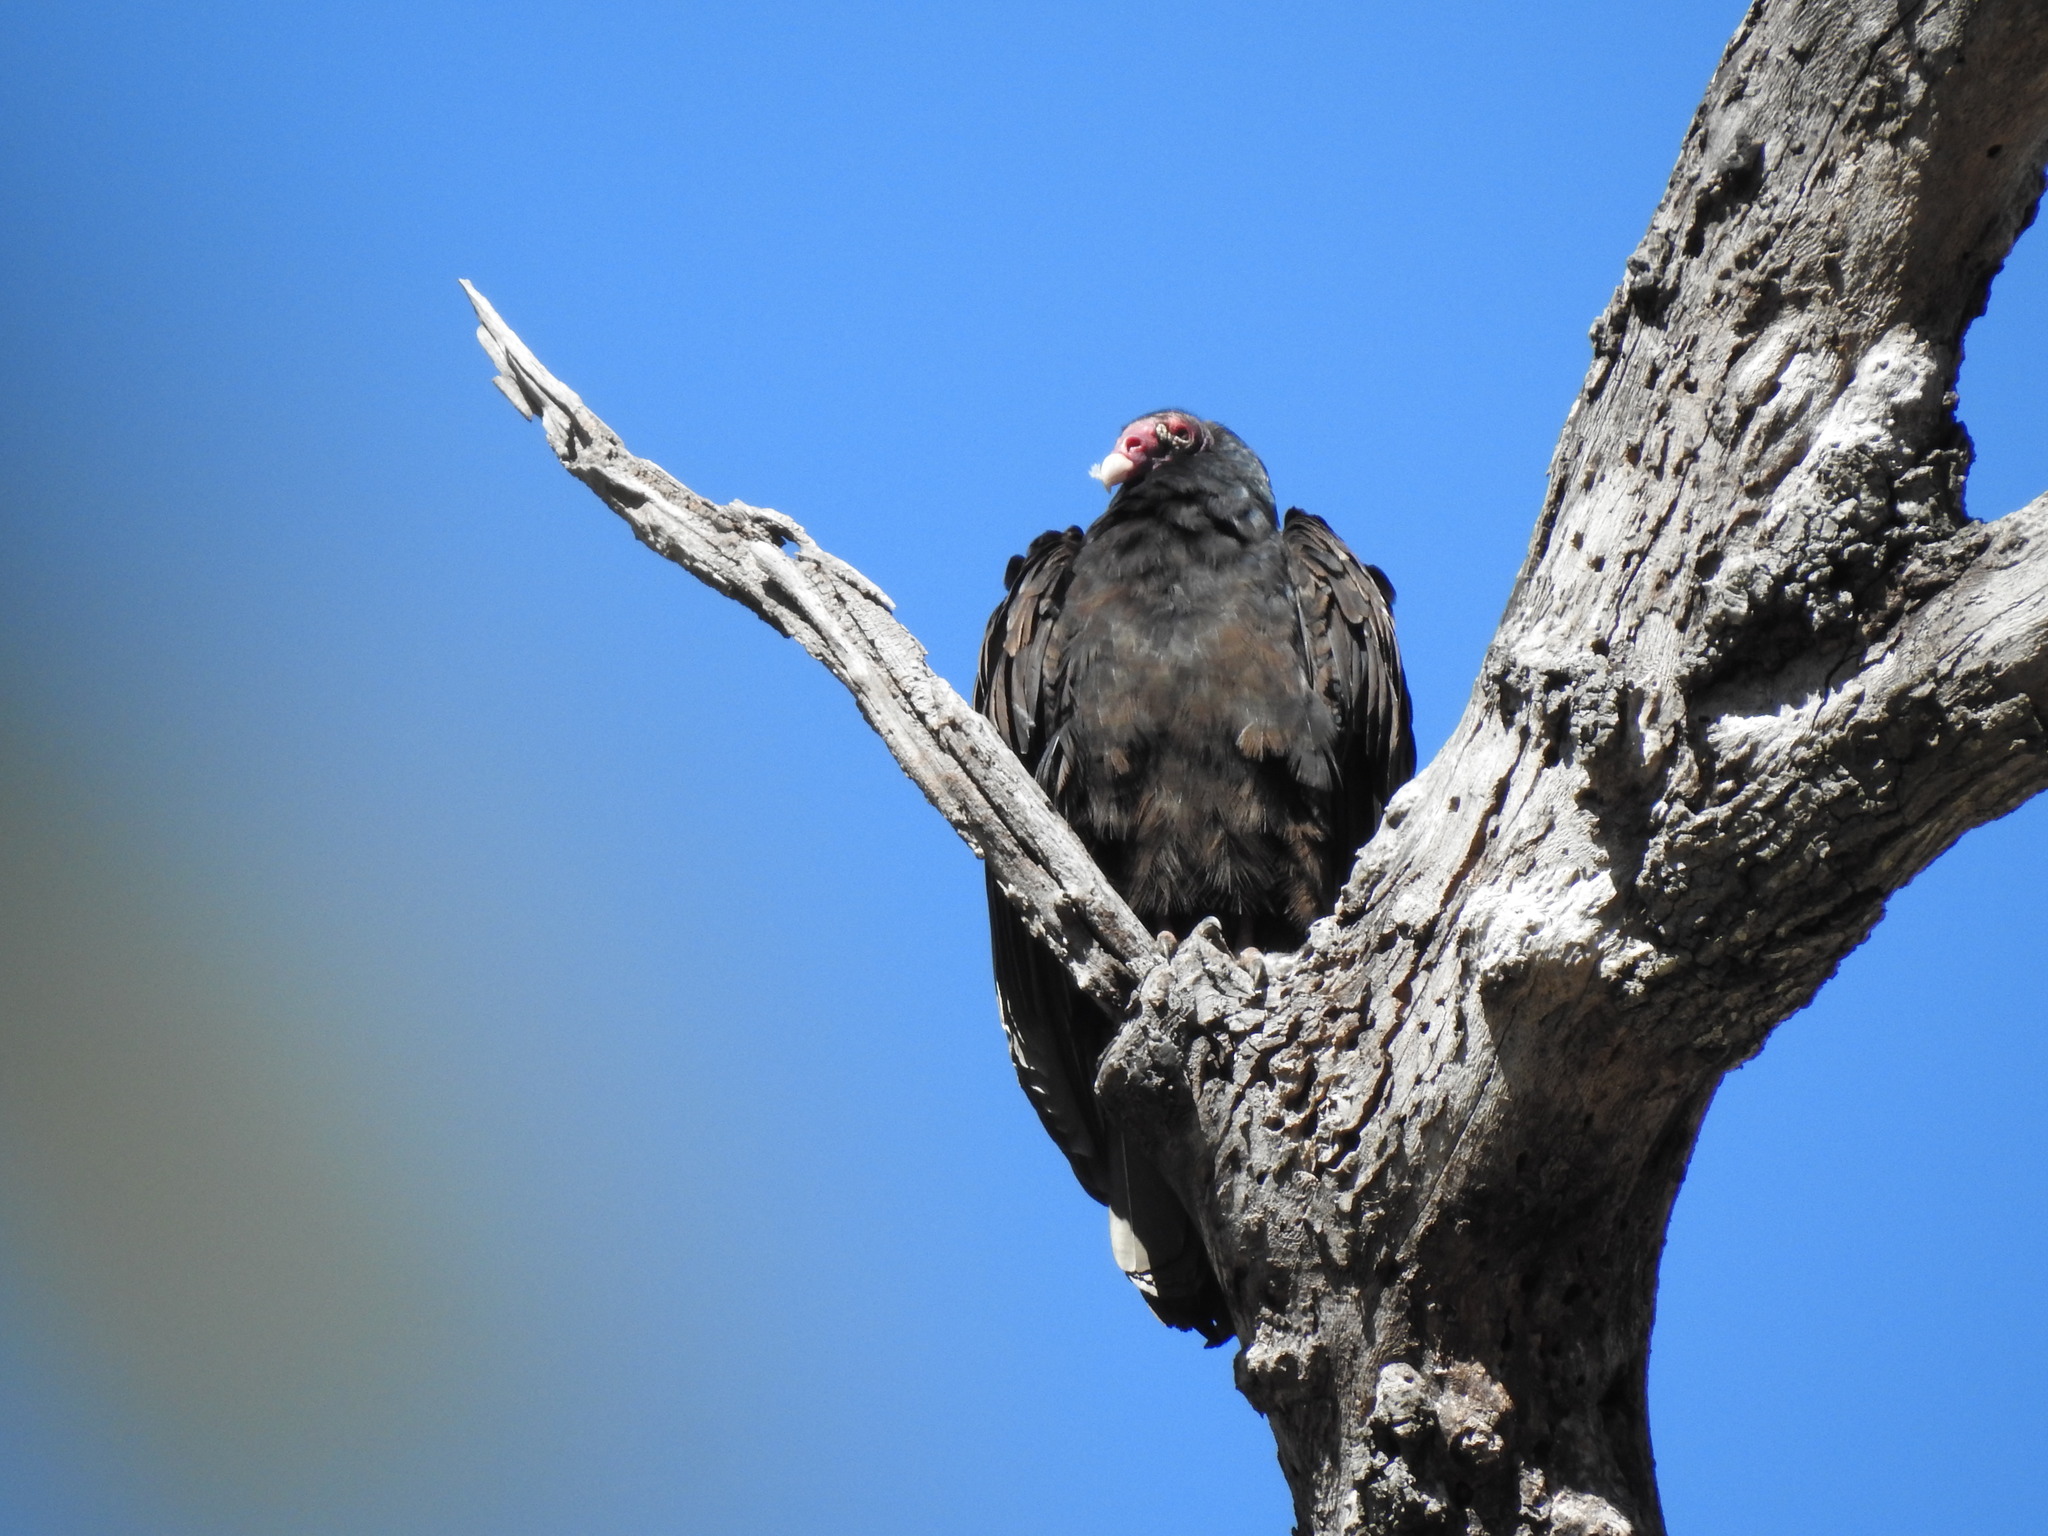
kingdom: Animalia
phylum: Chordata
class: Aves
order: Accipitriformes
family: Cathartidae
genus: Cathartes
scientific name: Cathartes aura
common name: Turkey vulture
